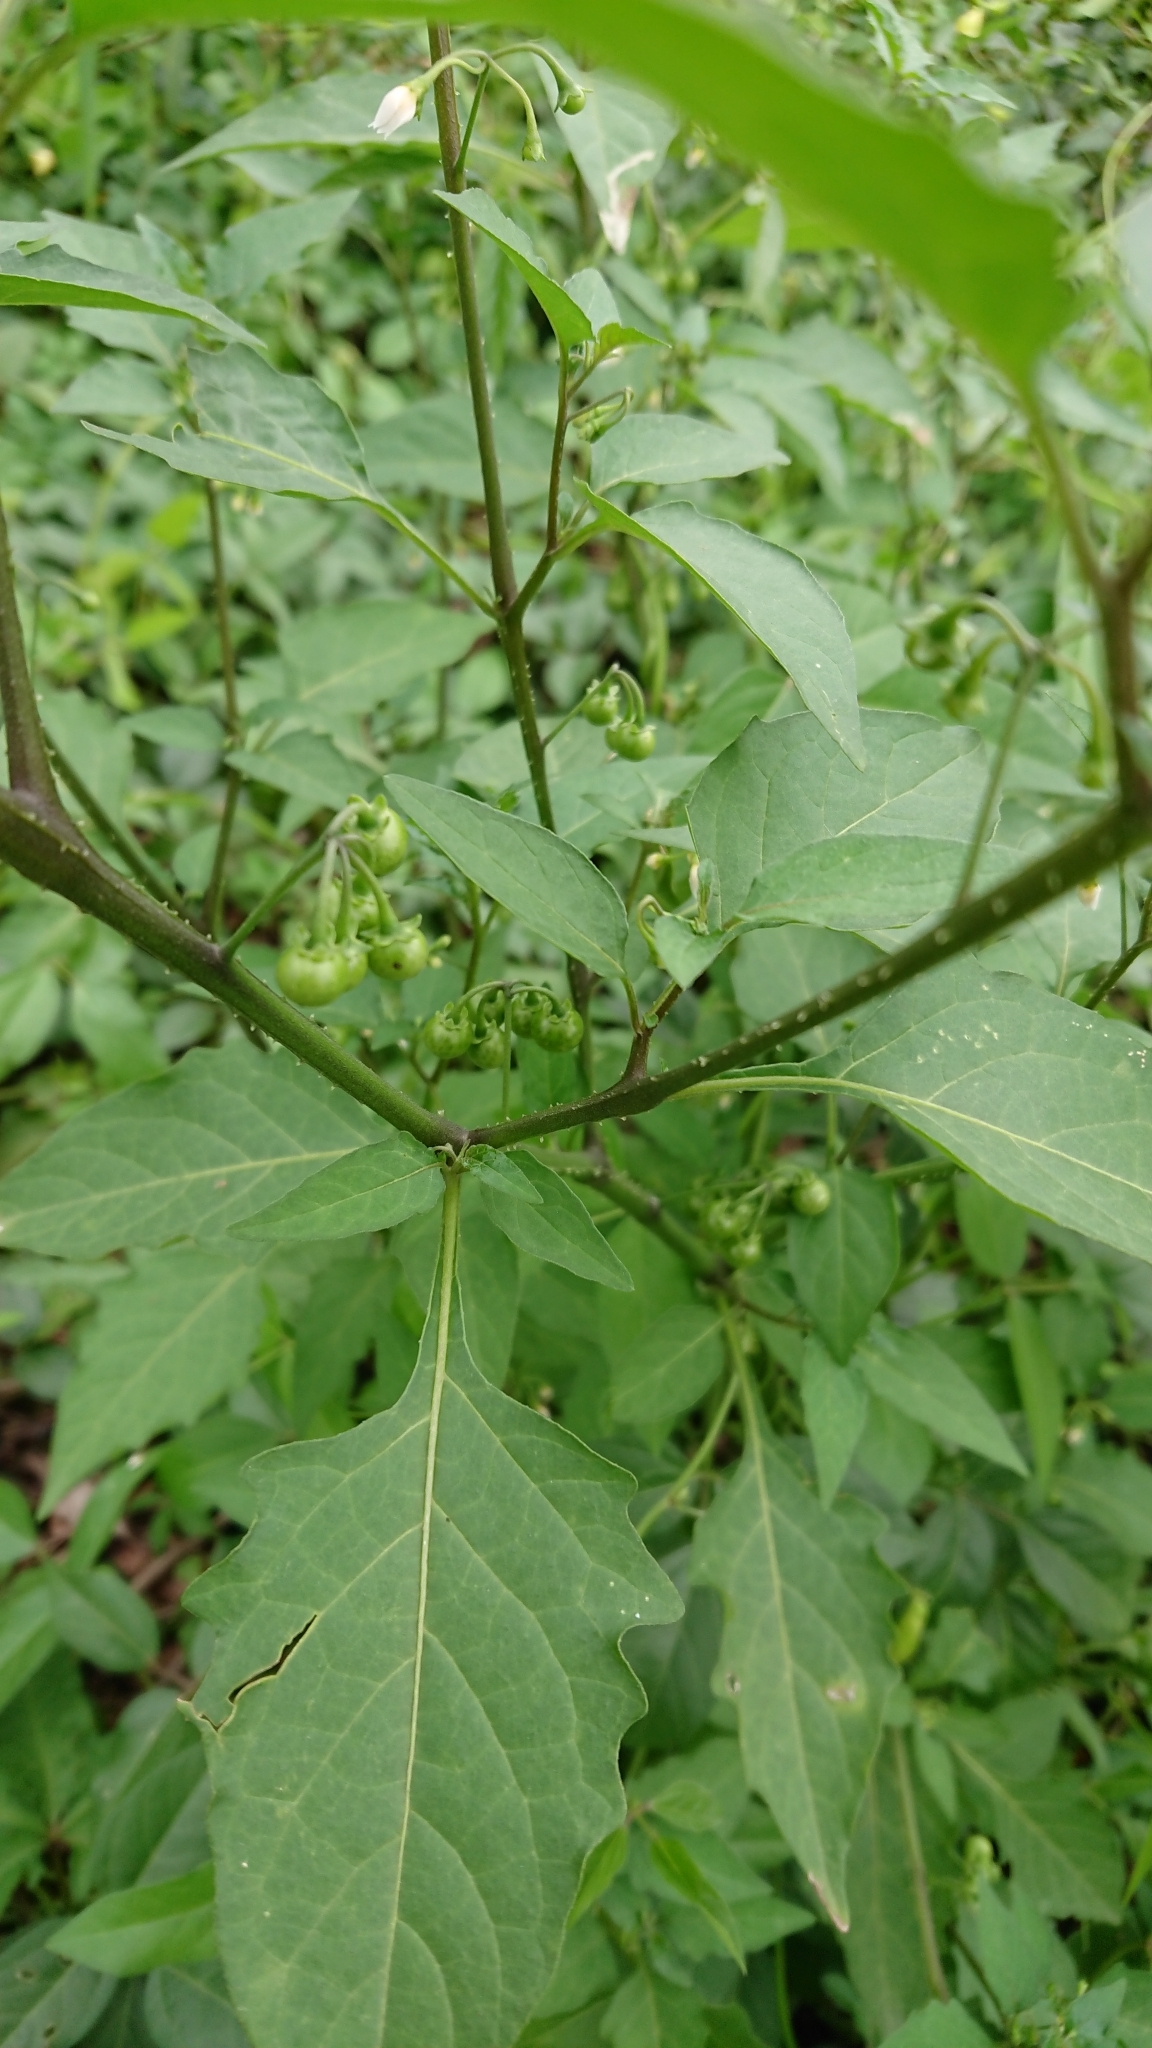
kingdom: Plantae
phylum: Tracheophyta
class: Magnoliopsida
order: Solanales
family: Solanaceae
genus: Solanum
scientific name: Solanum americanum
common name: American black nightshade
